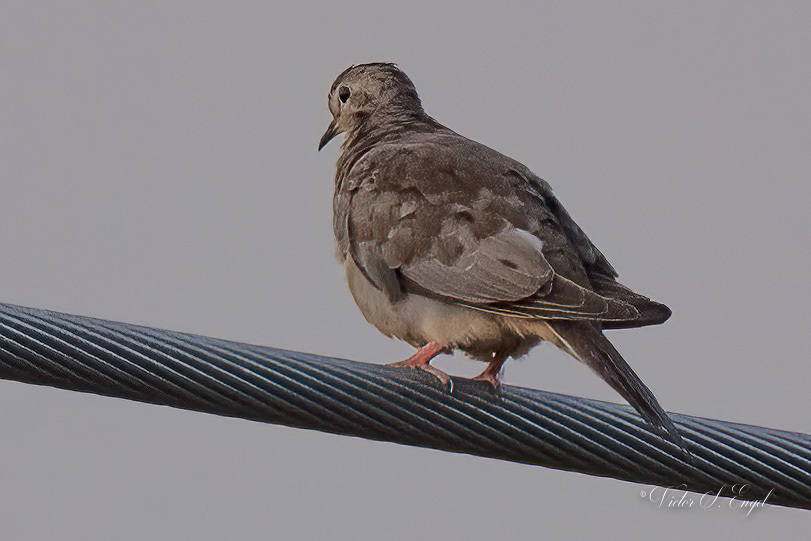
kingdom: Animalia
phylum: Chordata
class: Aves
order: Columbiformes
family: Columbidae
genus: Zenaida
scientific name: Zenaida macroura
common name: Mourning dove
